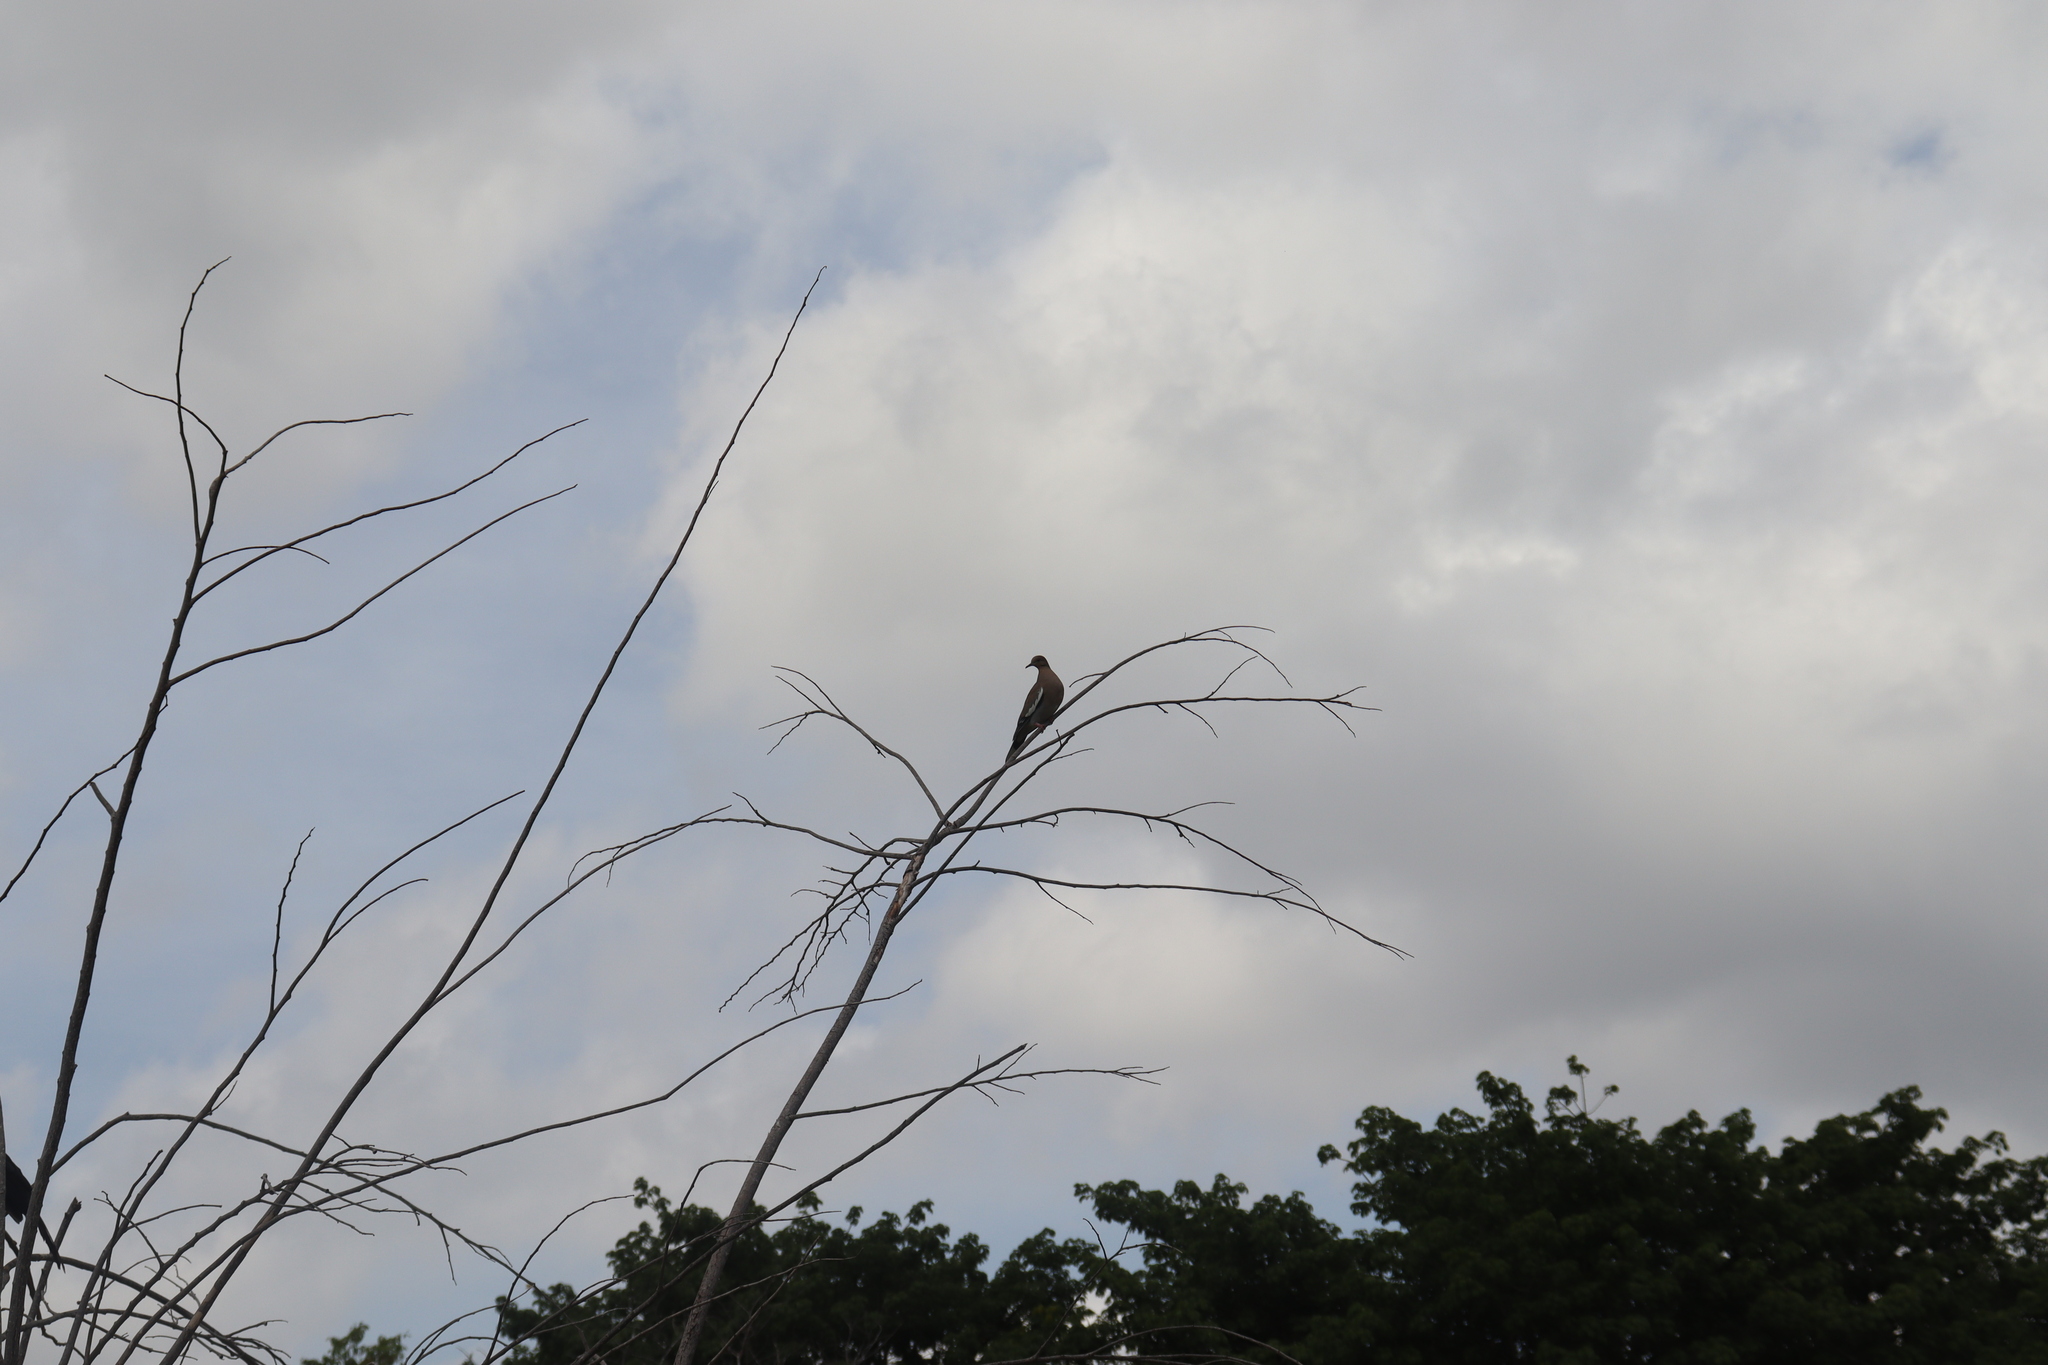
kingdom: Animalia
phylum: Chordata
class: Aves
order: Columbiformes
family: Columbidae
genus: Zenaida
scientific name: Zenaida asiatica
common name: White-winged dove
